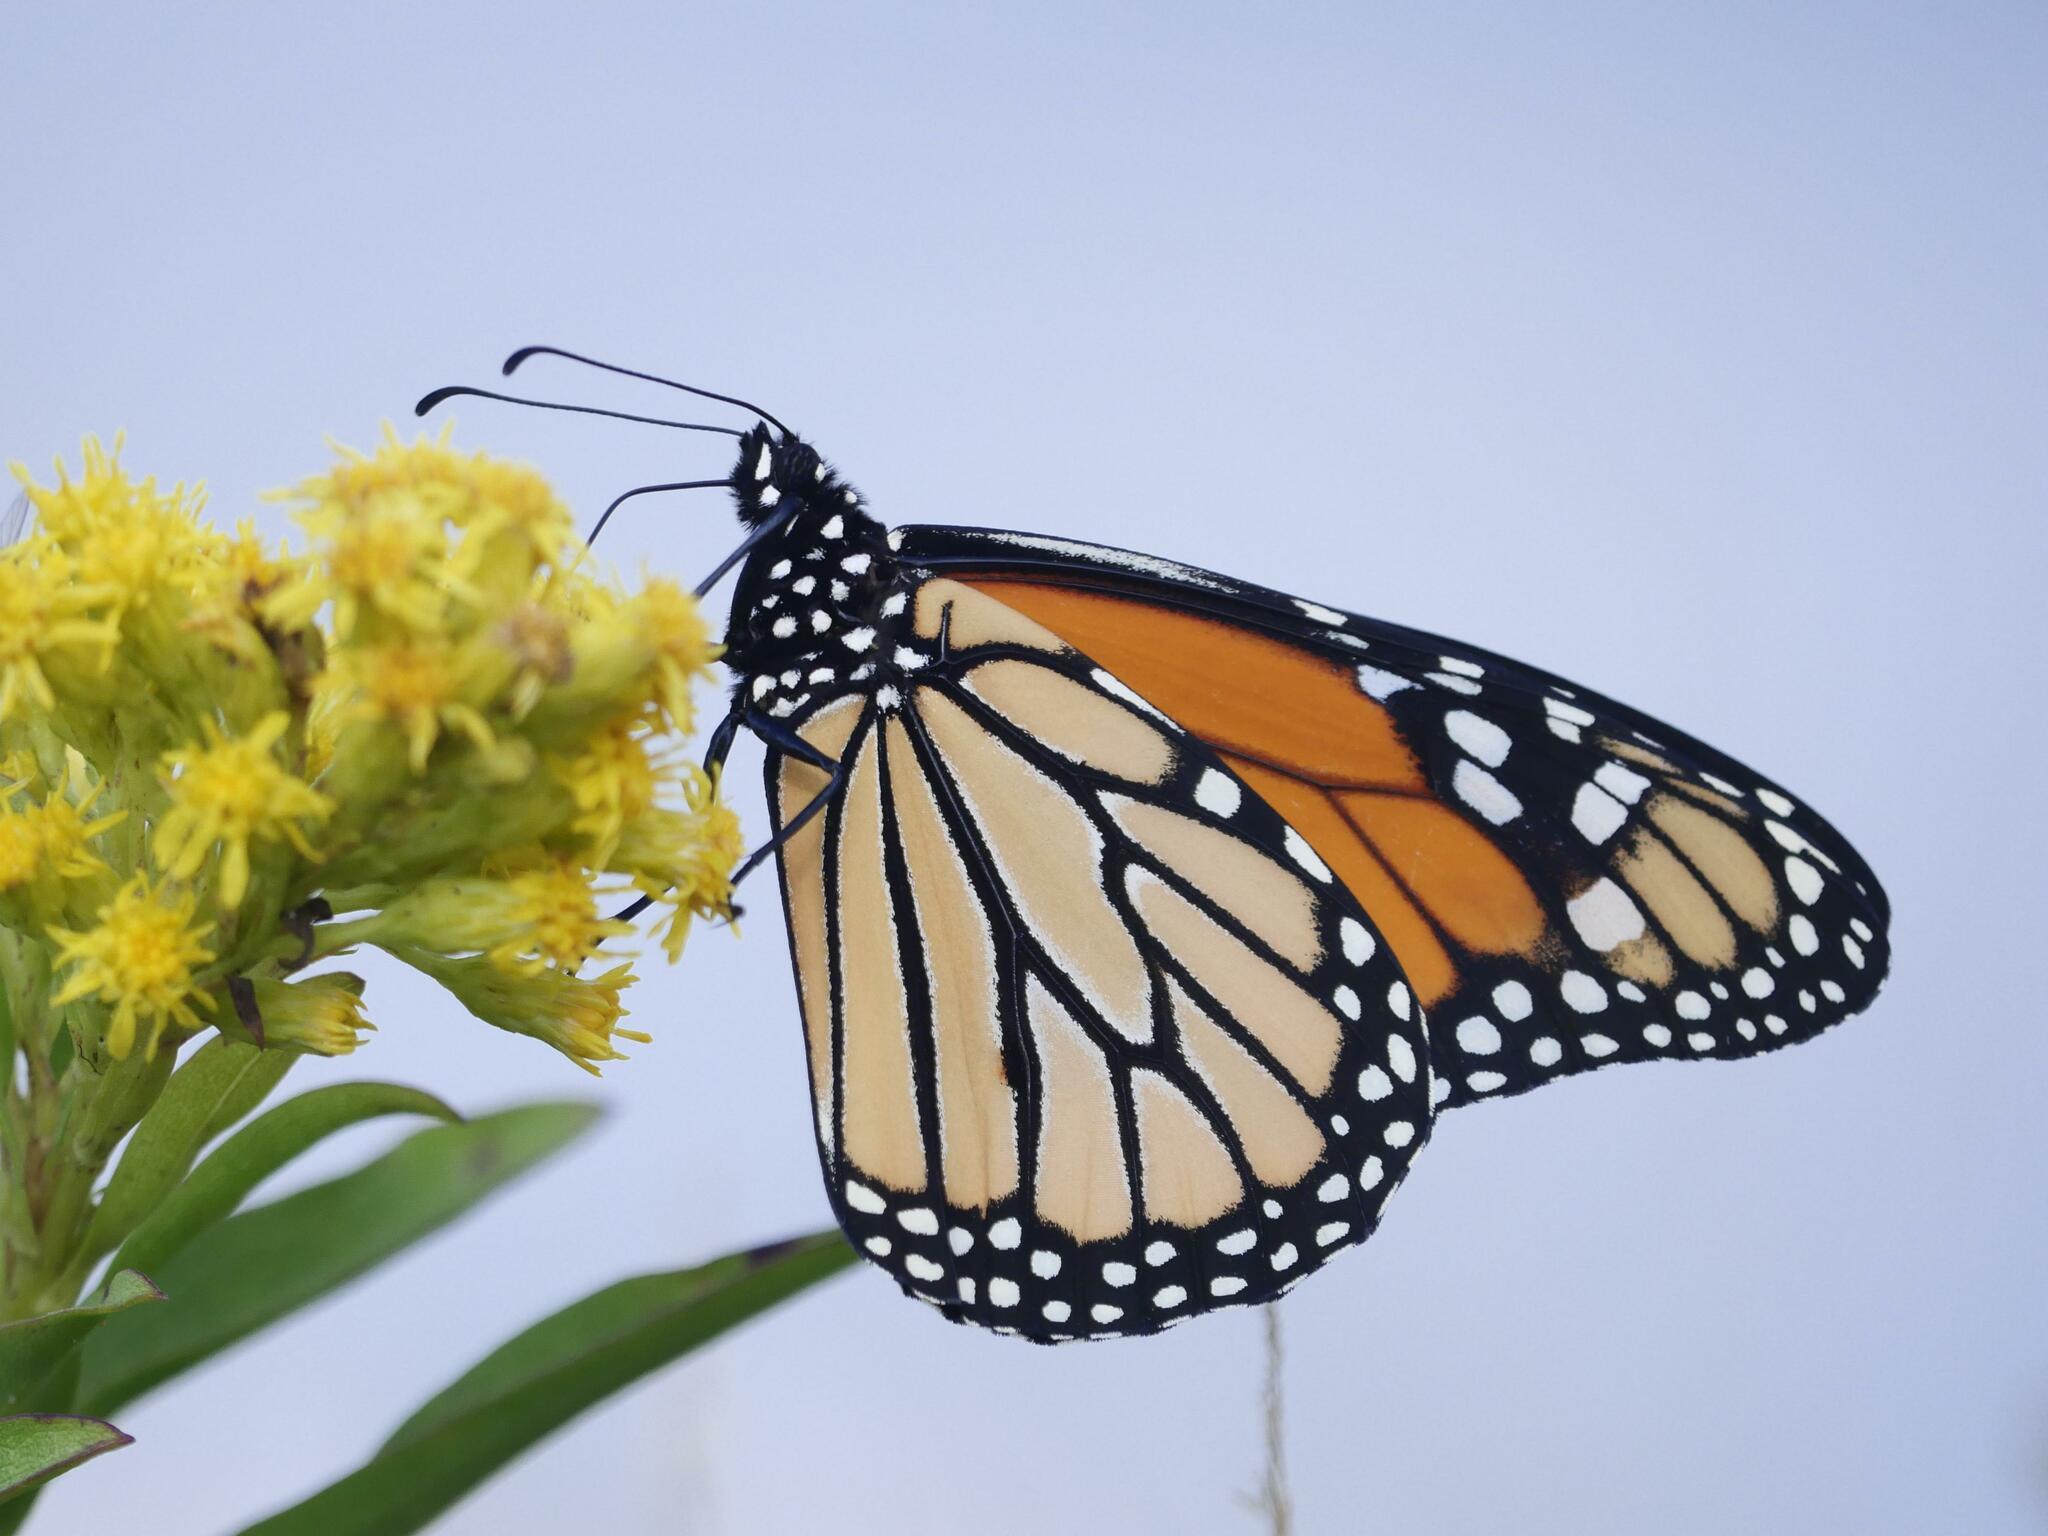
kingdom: Animalia
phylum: Arthropoda
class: Insecta
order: Lepidoptera
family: Nymphalidae
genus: Danaus
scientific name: Danaus plexippus
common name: Monarch
